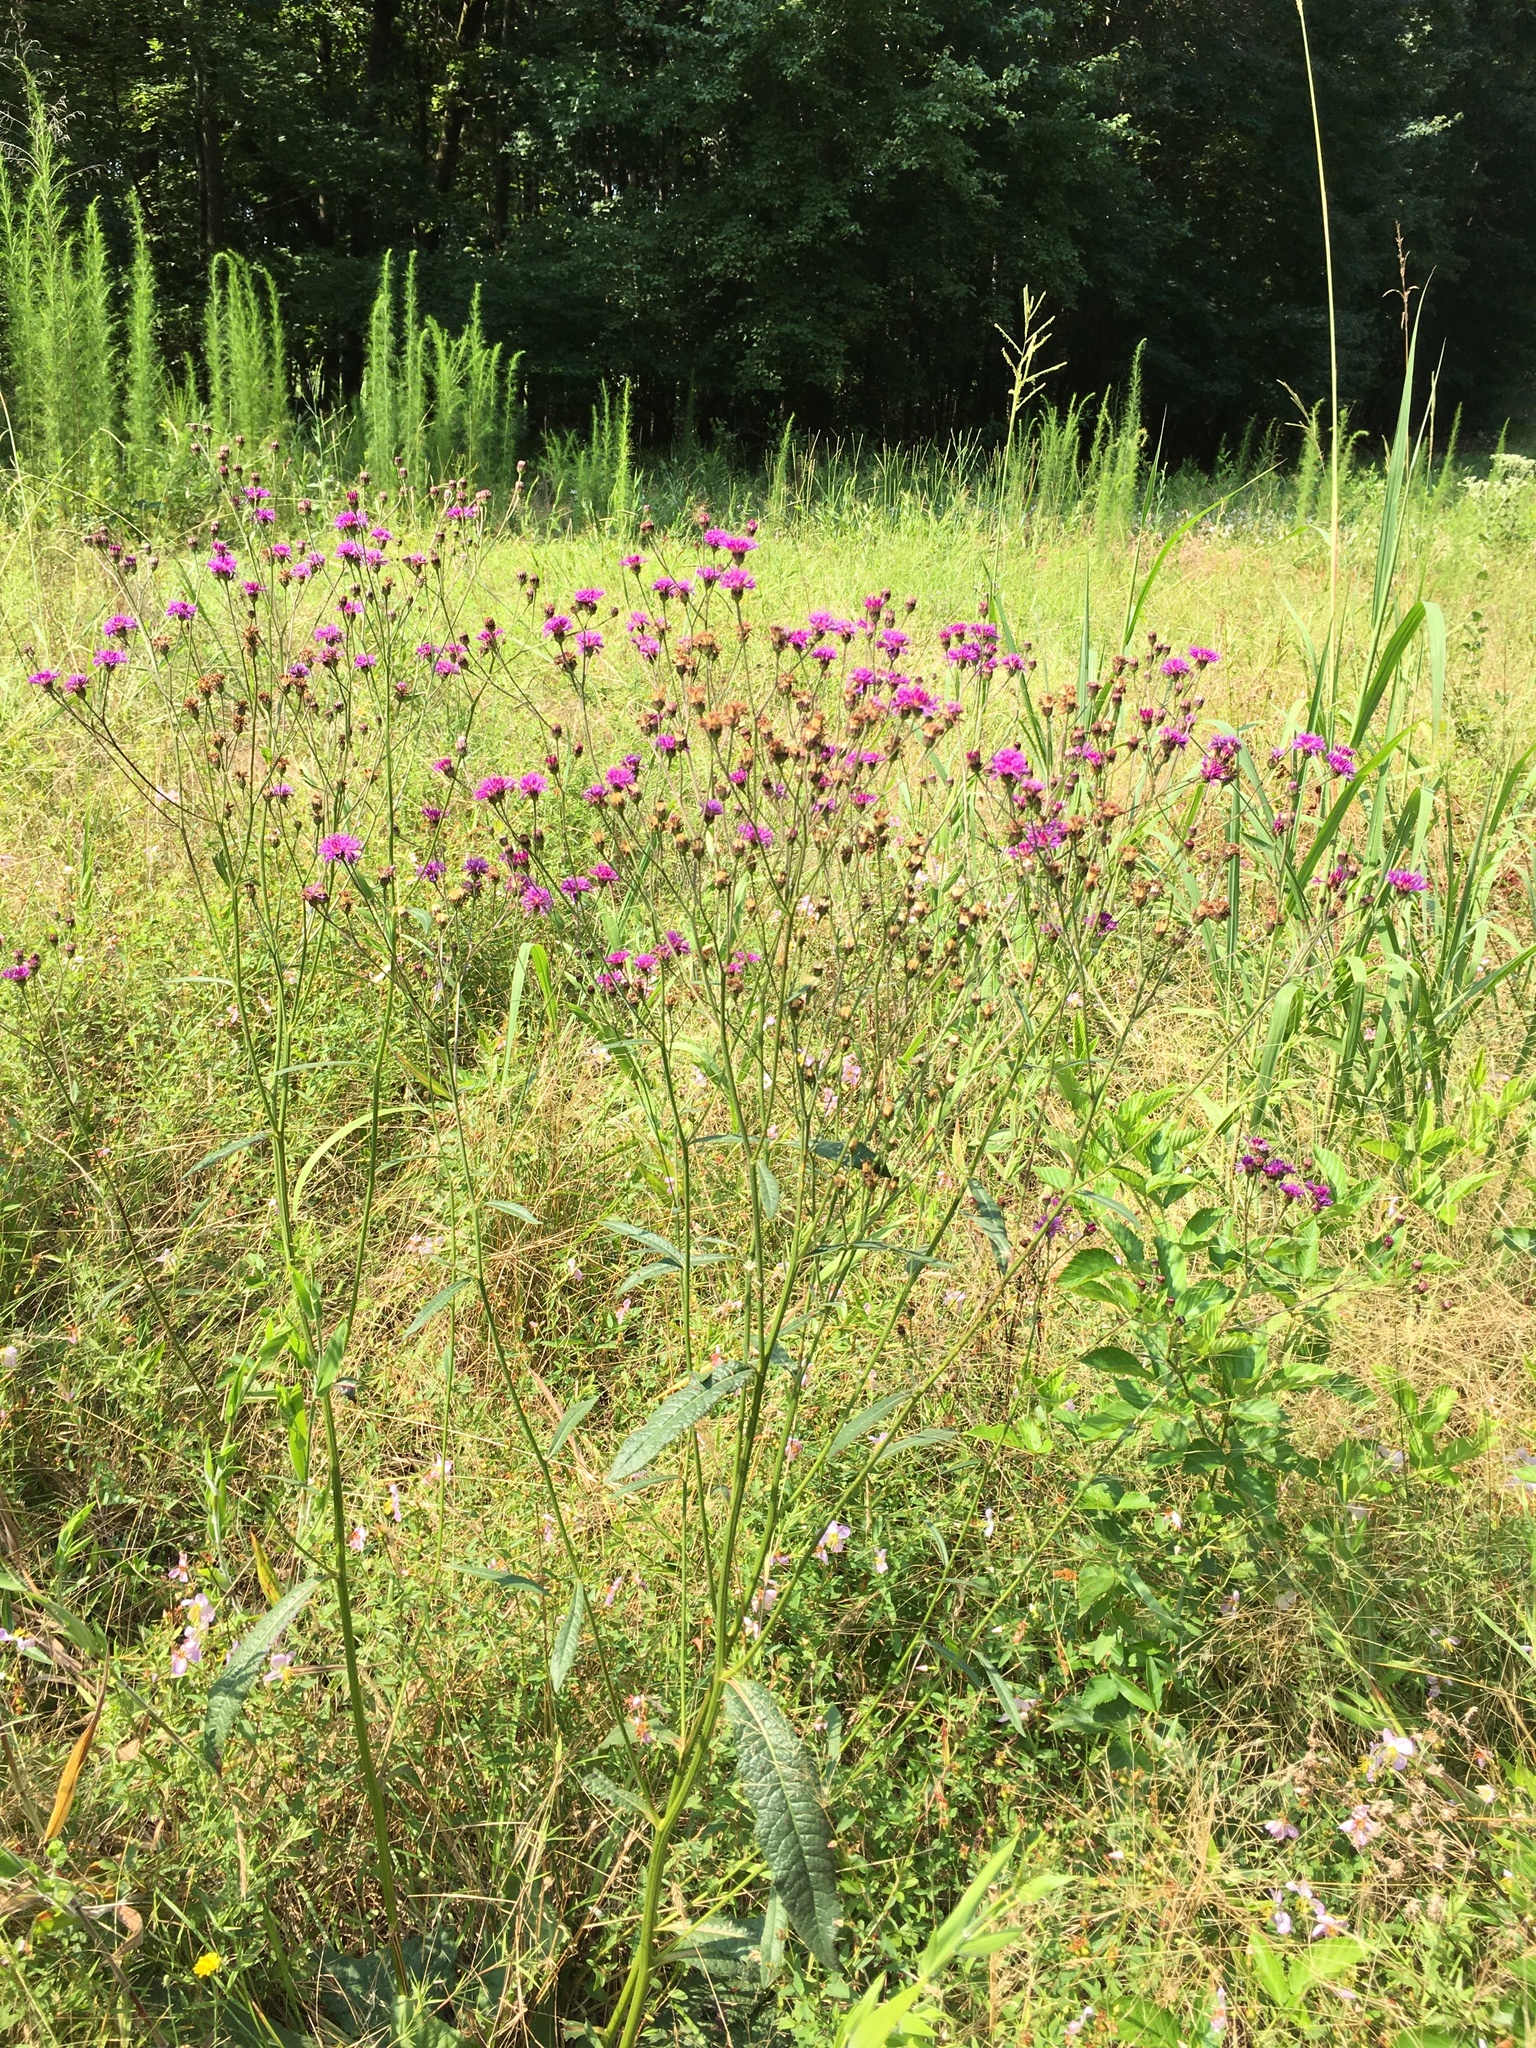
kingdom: Plantae
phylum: Tracheophyta
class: Magnoliopsida
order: Asterales
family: Asteraceae
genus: Vernonia
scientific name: Vernonia acaulis
